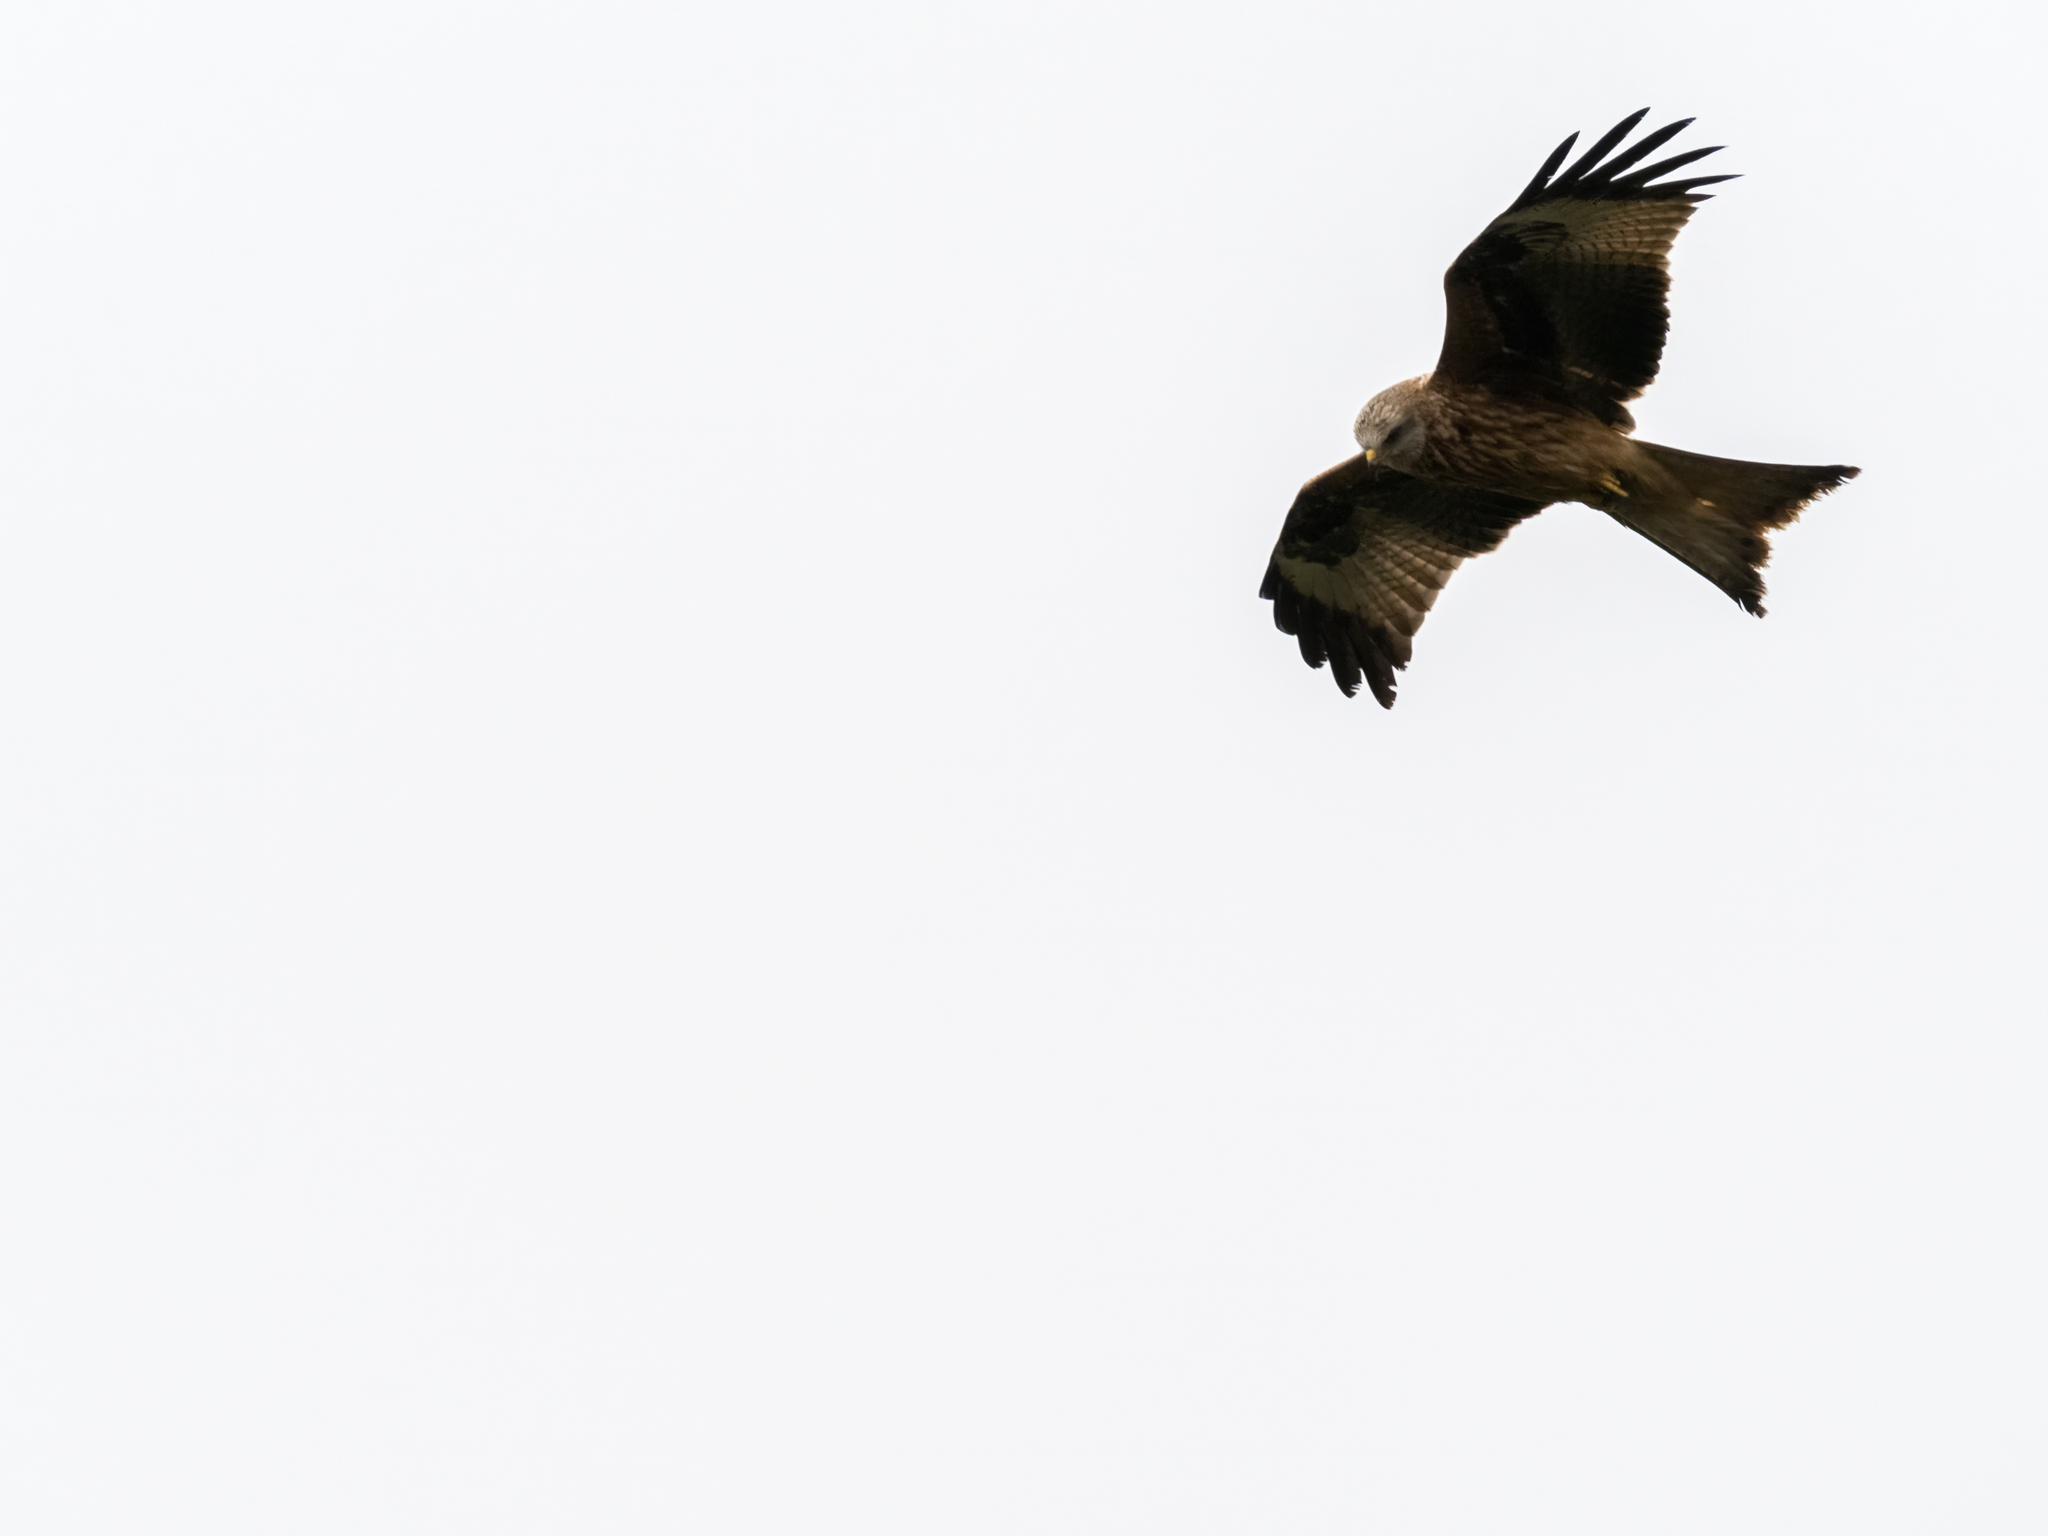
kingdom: Animalia
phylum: Chordata
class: Aves
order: Accipitriformes
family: Accipitridae
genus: Milvus
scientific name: Milvus milvus
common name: Red kite
